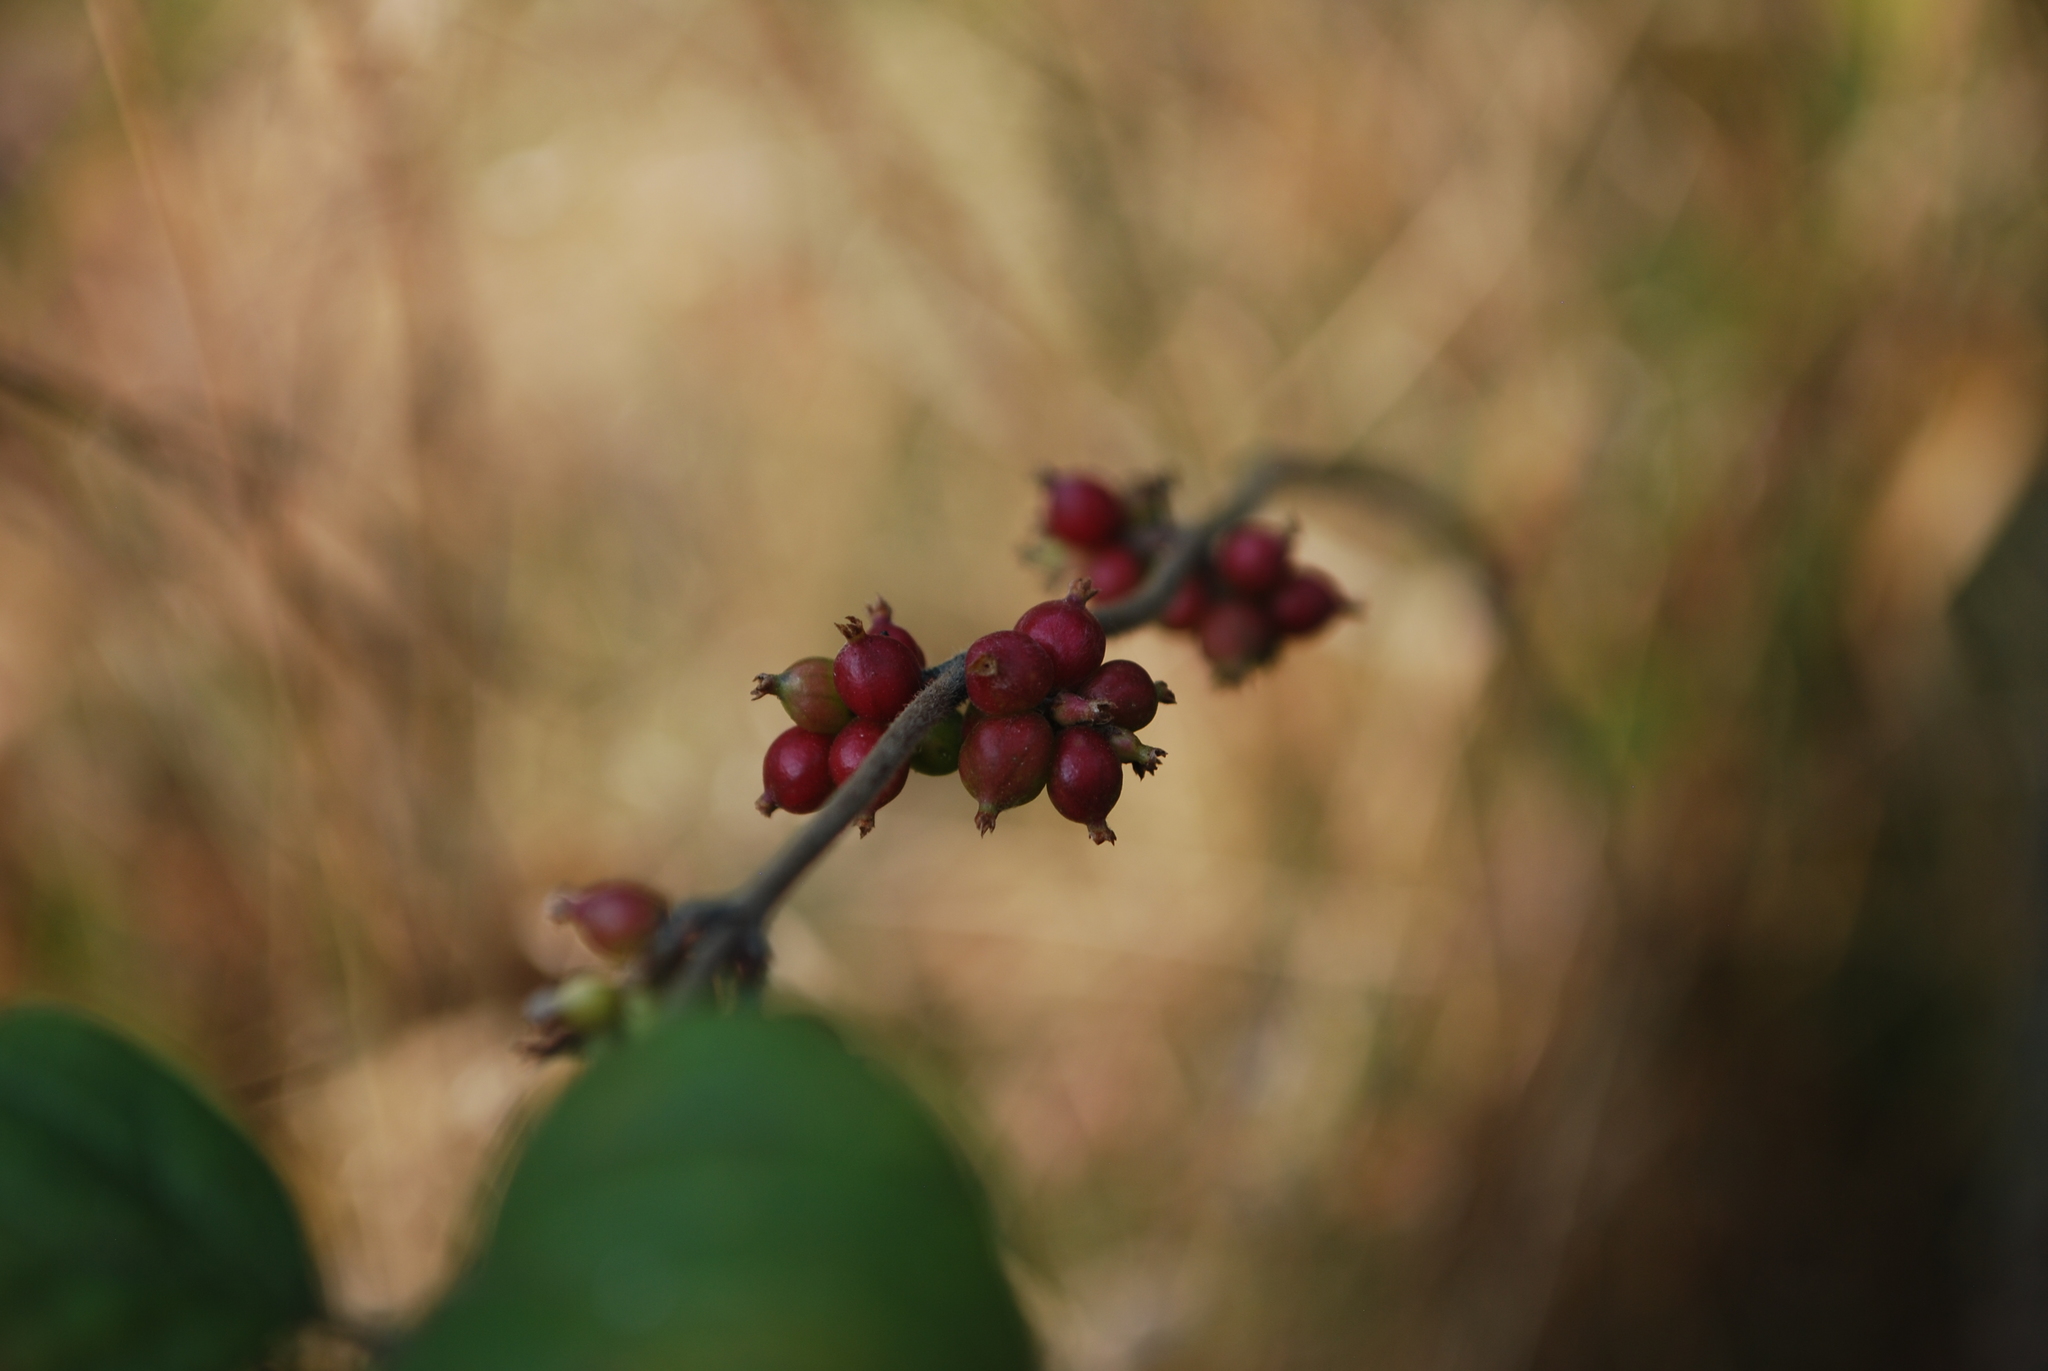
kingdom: Plantae
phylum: Tracheophyta
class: Magnoliopsida
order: Dipsacales
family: Caprifoliaceae
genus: Symphoricarpos
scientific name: Symphoricarpos orbiculatus
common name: Coralberry
